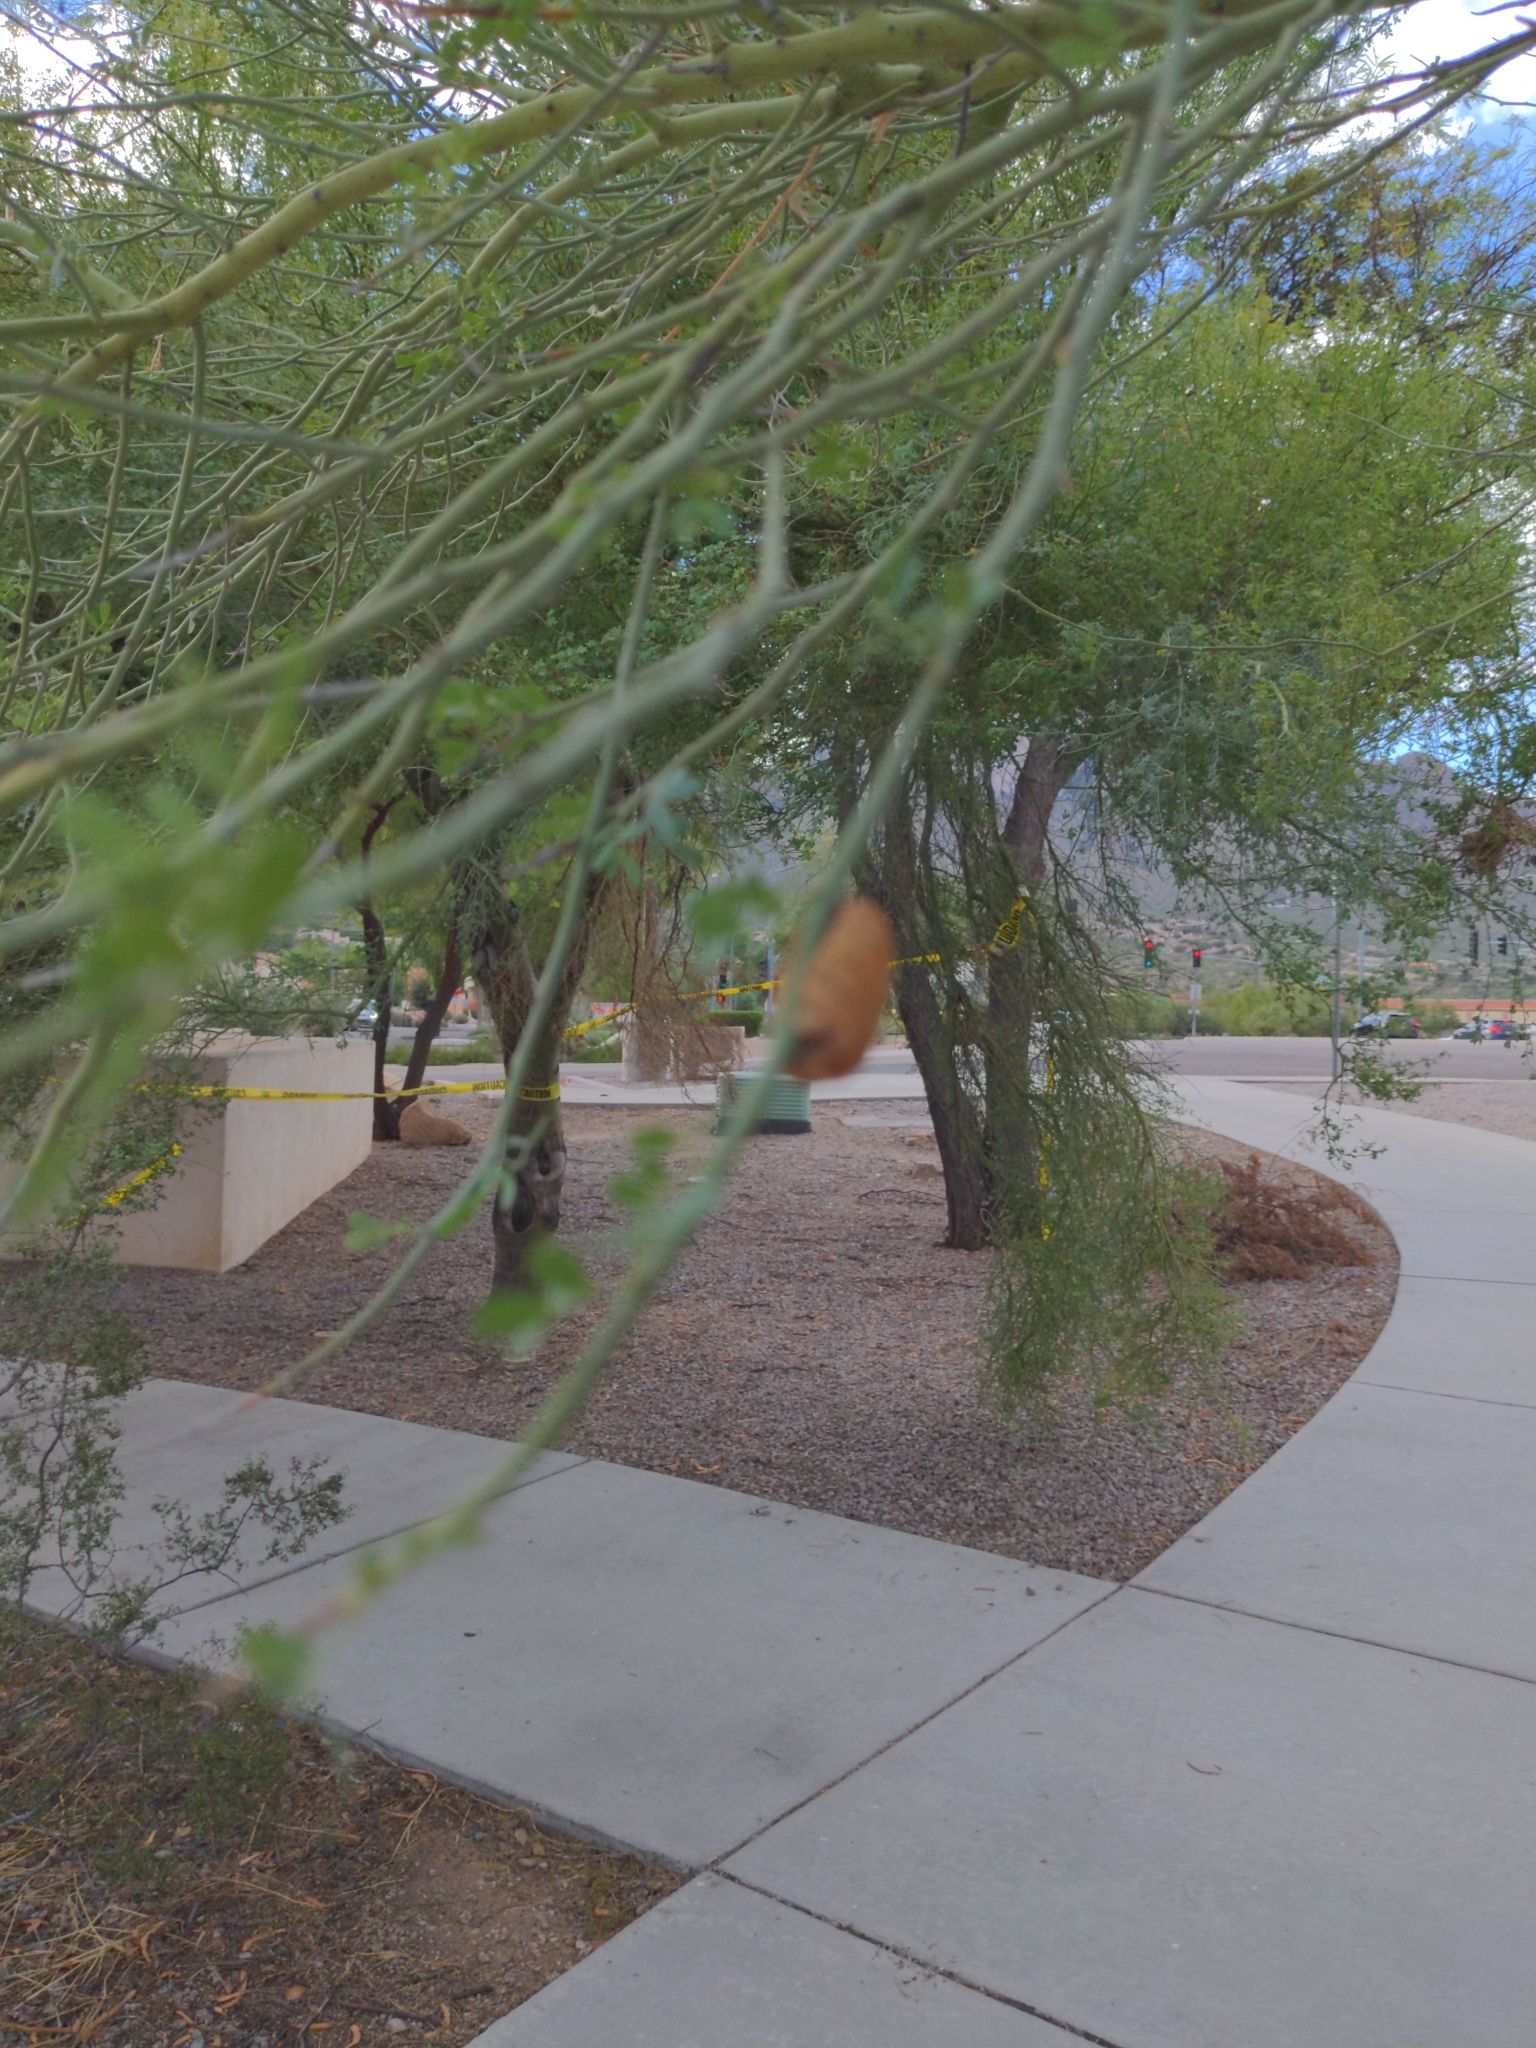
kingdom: Plantae
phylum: Tracheophyta
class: Magnoliopsida
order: Fabales
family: Fabaceae
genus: Parkinsonia
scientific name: Parkinsonia florida
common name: Blue paloverde
